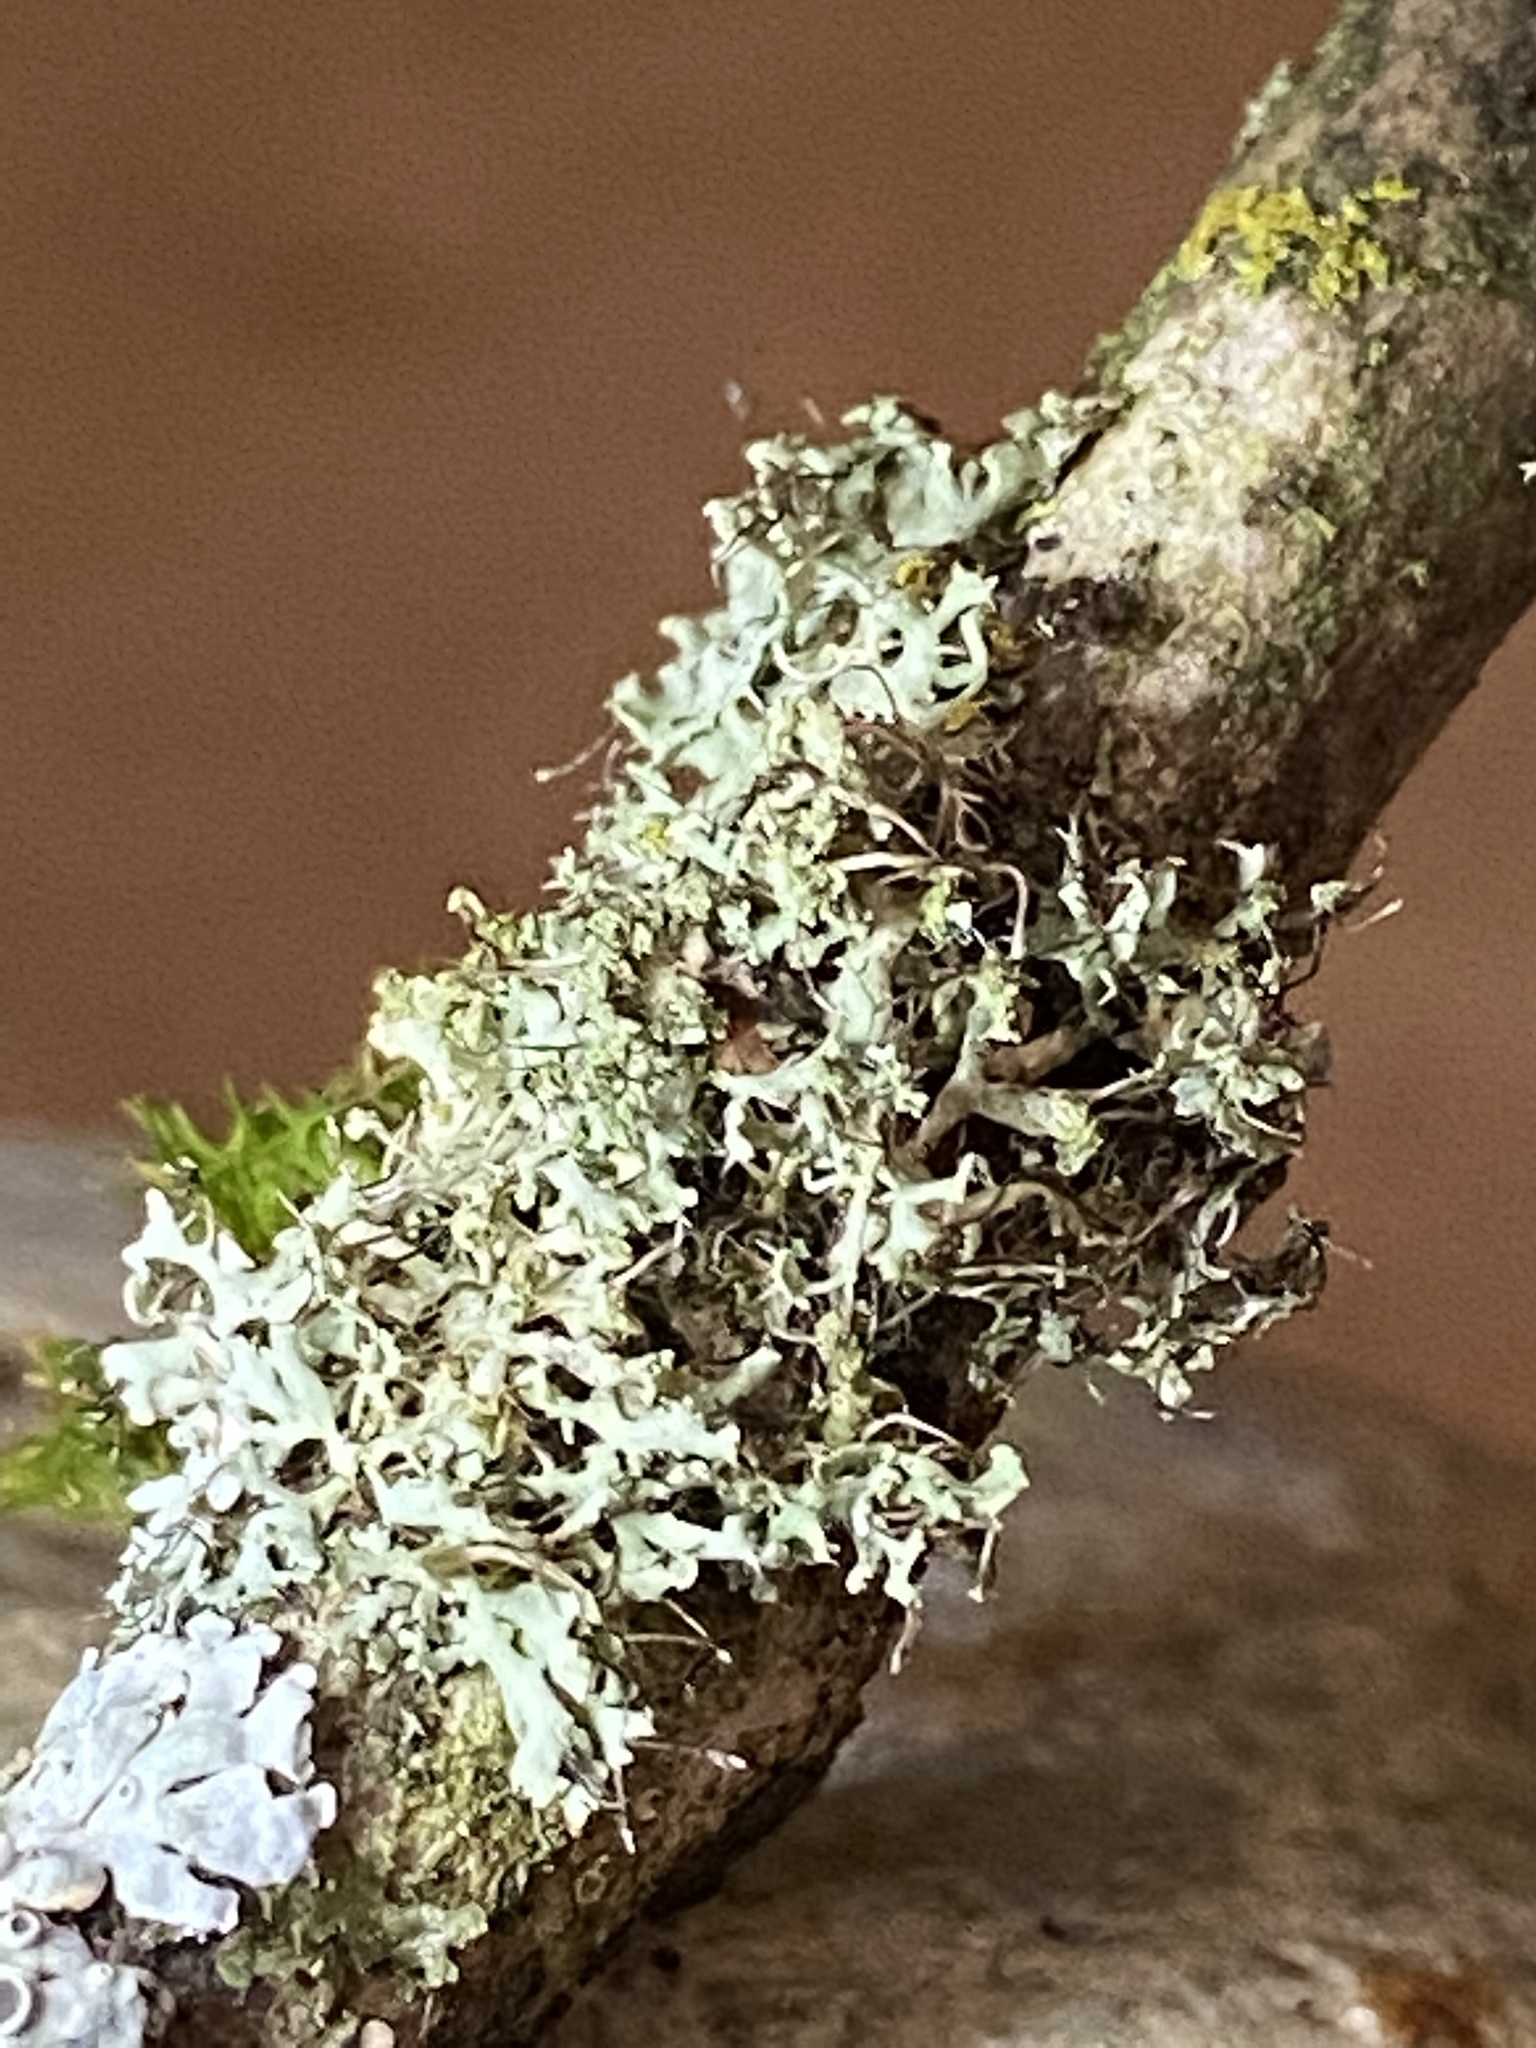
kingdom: Fungi
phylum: Ascomycota
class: Lecanoromycetes
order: Caliciales
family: Physciaceae
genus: Physcia
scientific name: Physcia tenella
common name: Fringed rosette lichen
